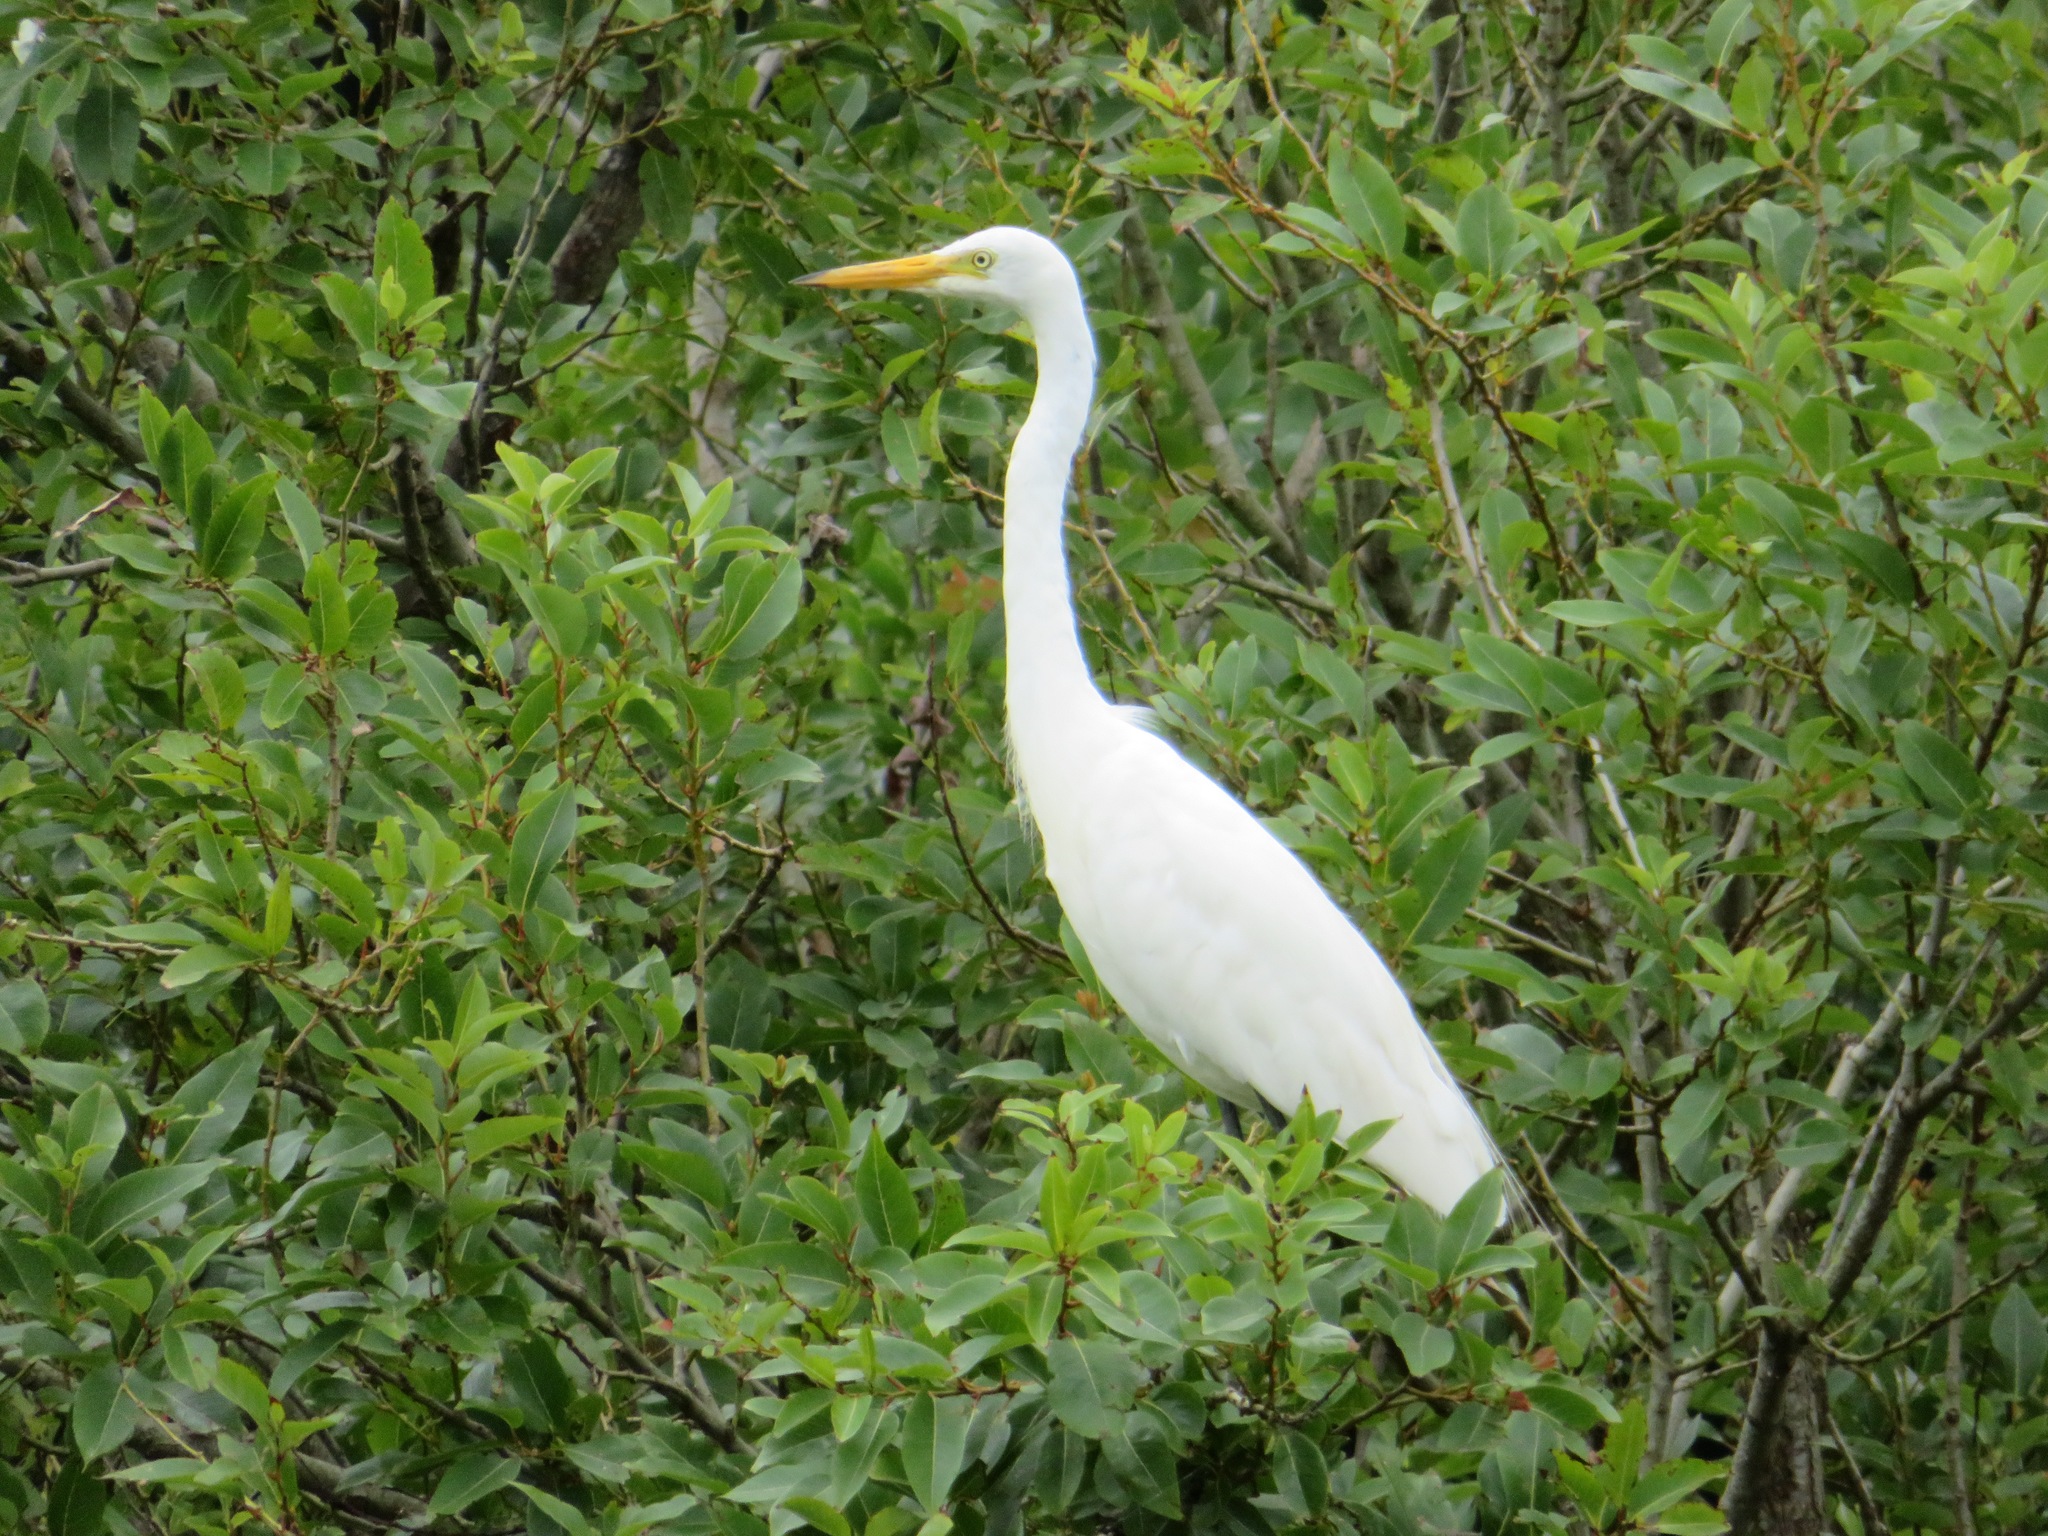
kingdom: Animalia
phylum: Chordata
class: Aves
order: Pelecaniformes
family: Ardeidae
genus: Egretta
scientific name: Egretta intermedia
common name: Intermediate egret
